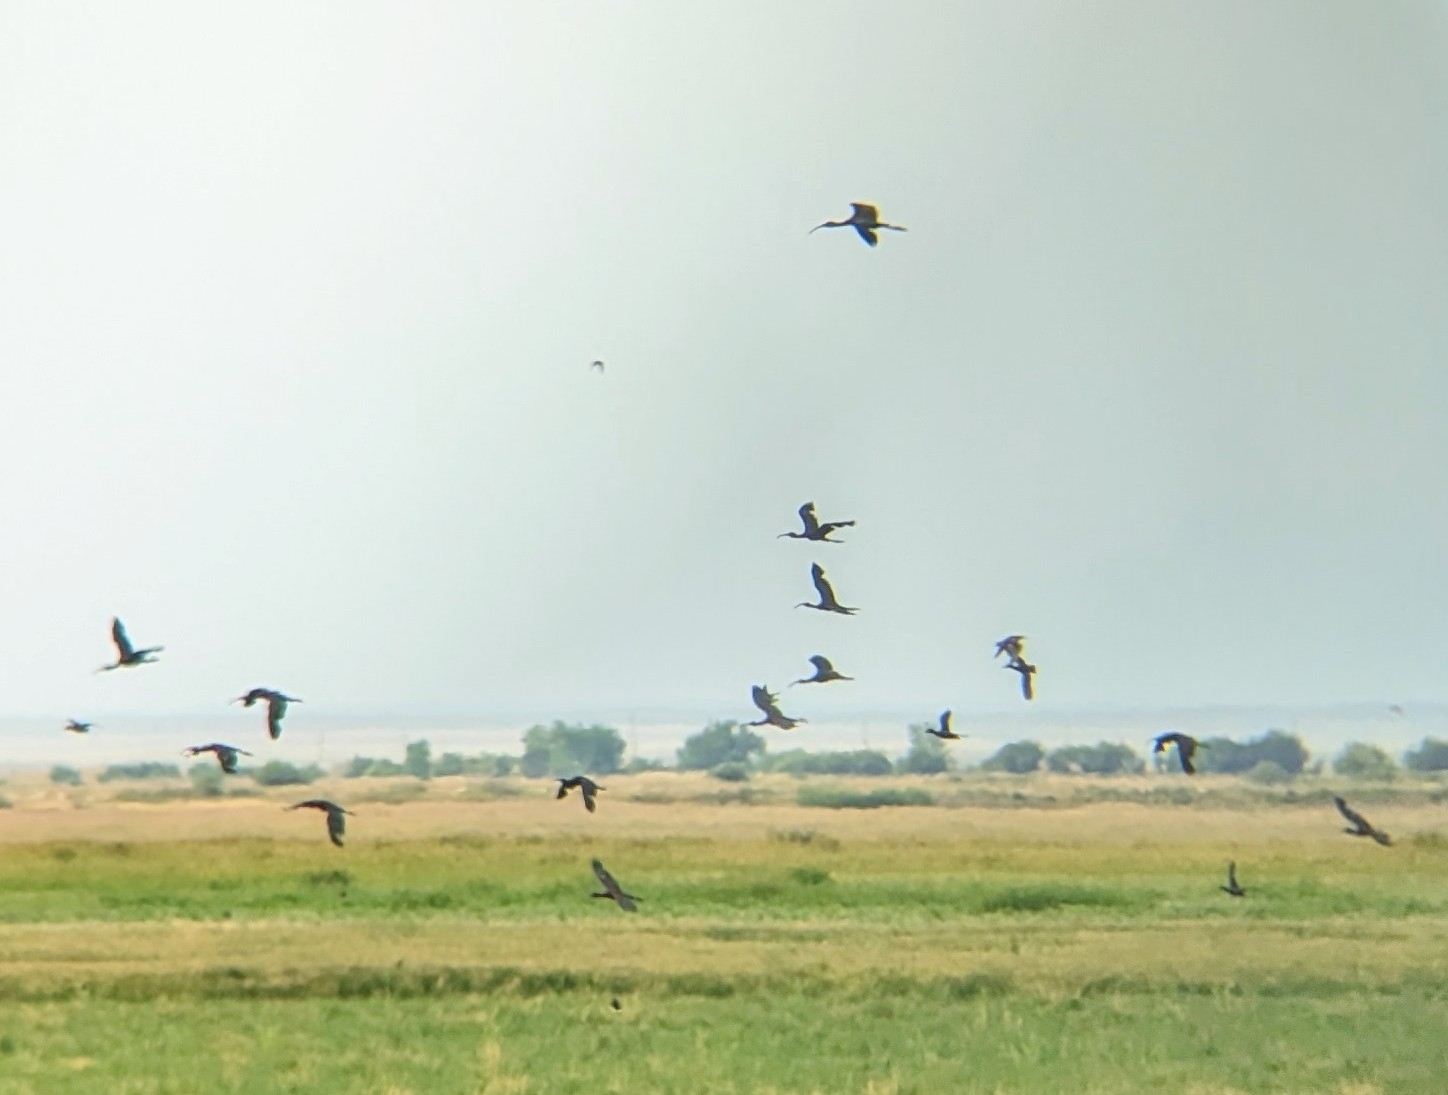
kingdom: Animalia
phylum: Chordata
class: Aves
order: Pelecaniformes
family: Threskiornithidae
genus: Plegadis
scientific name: Plegadis chihi
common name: White-faced ibis
